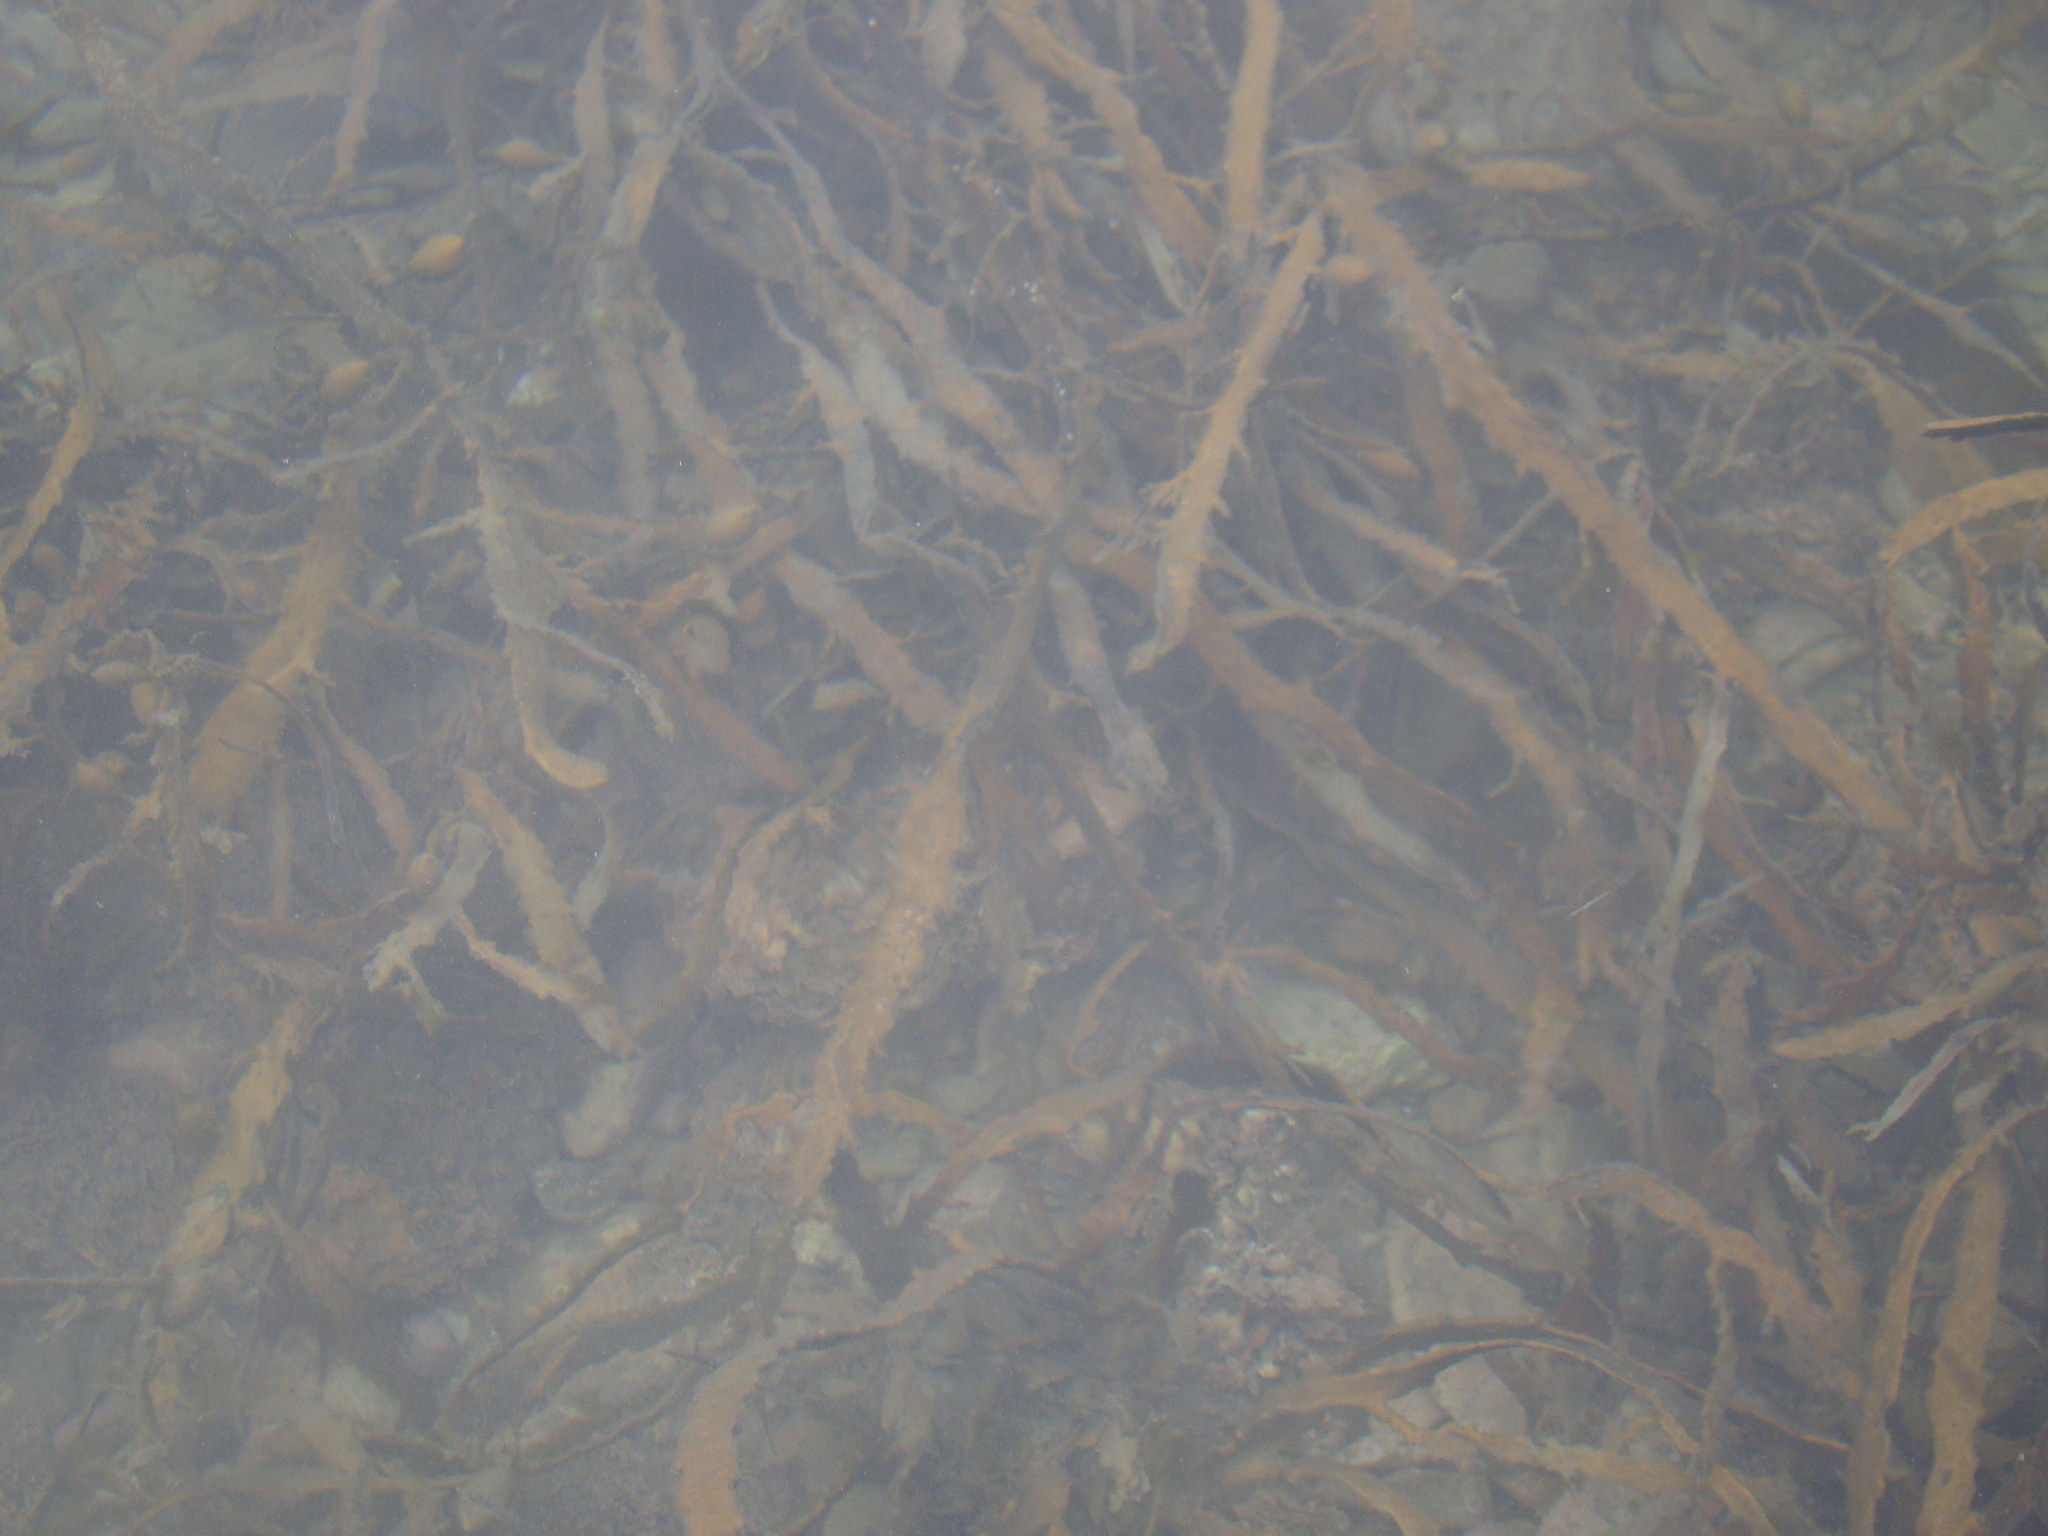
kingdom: Chromista
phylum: Ochrophyta
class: Phaeophyceae
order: Fucales
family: Sargassaceae
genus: Carpophyllum
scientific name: Carpophyllum maschalocarpum
